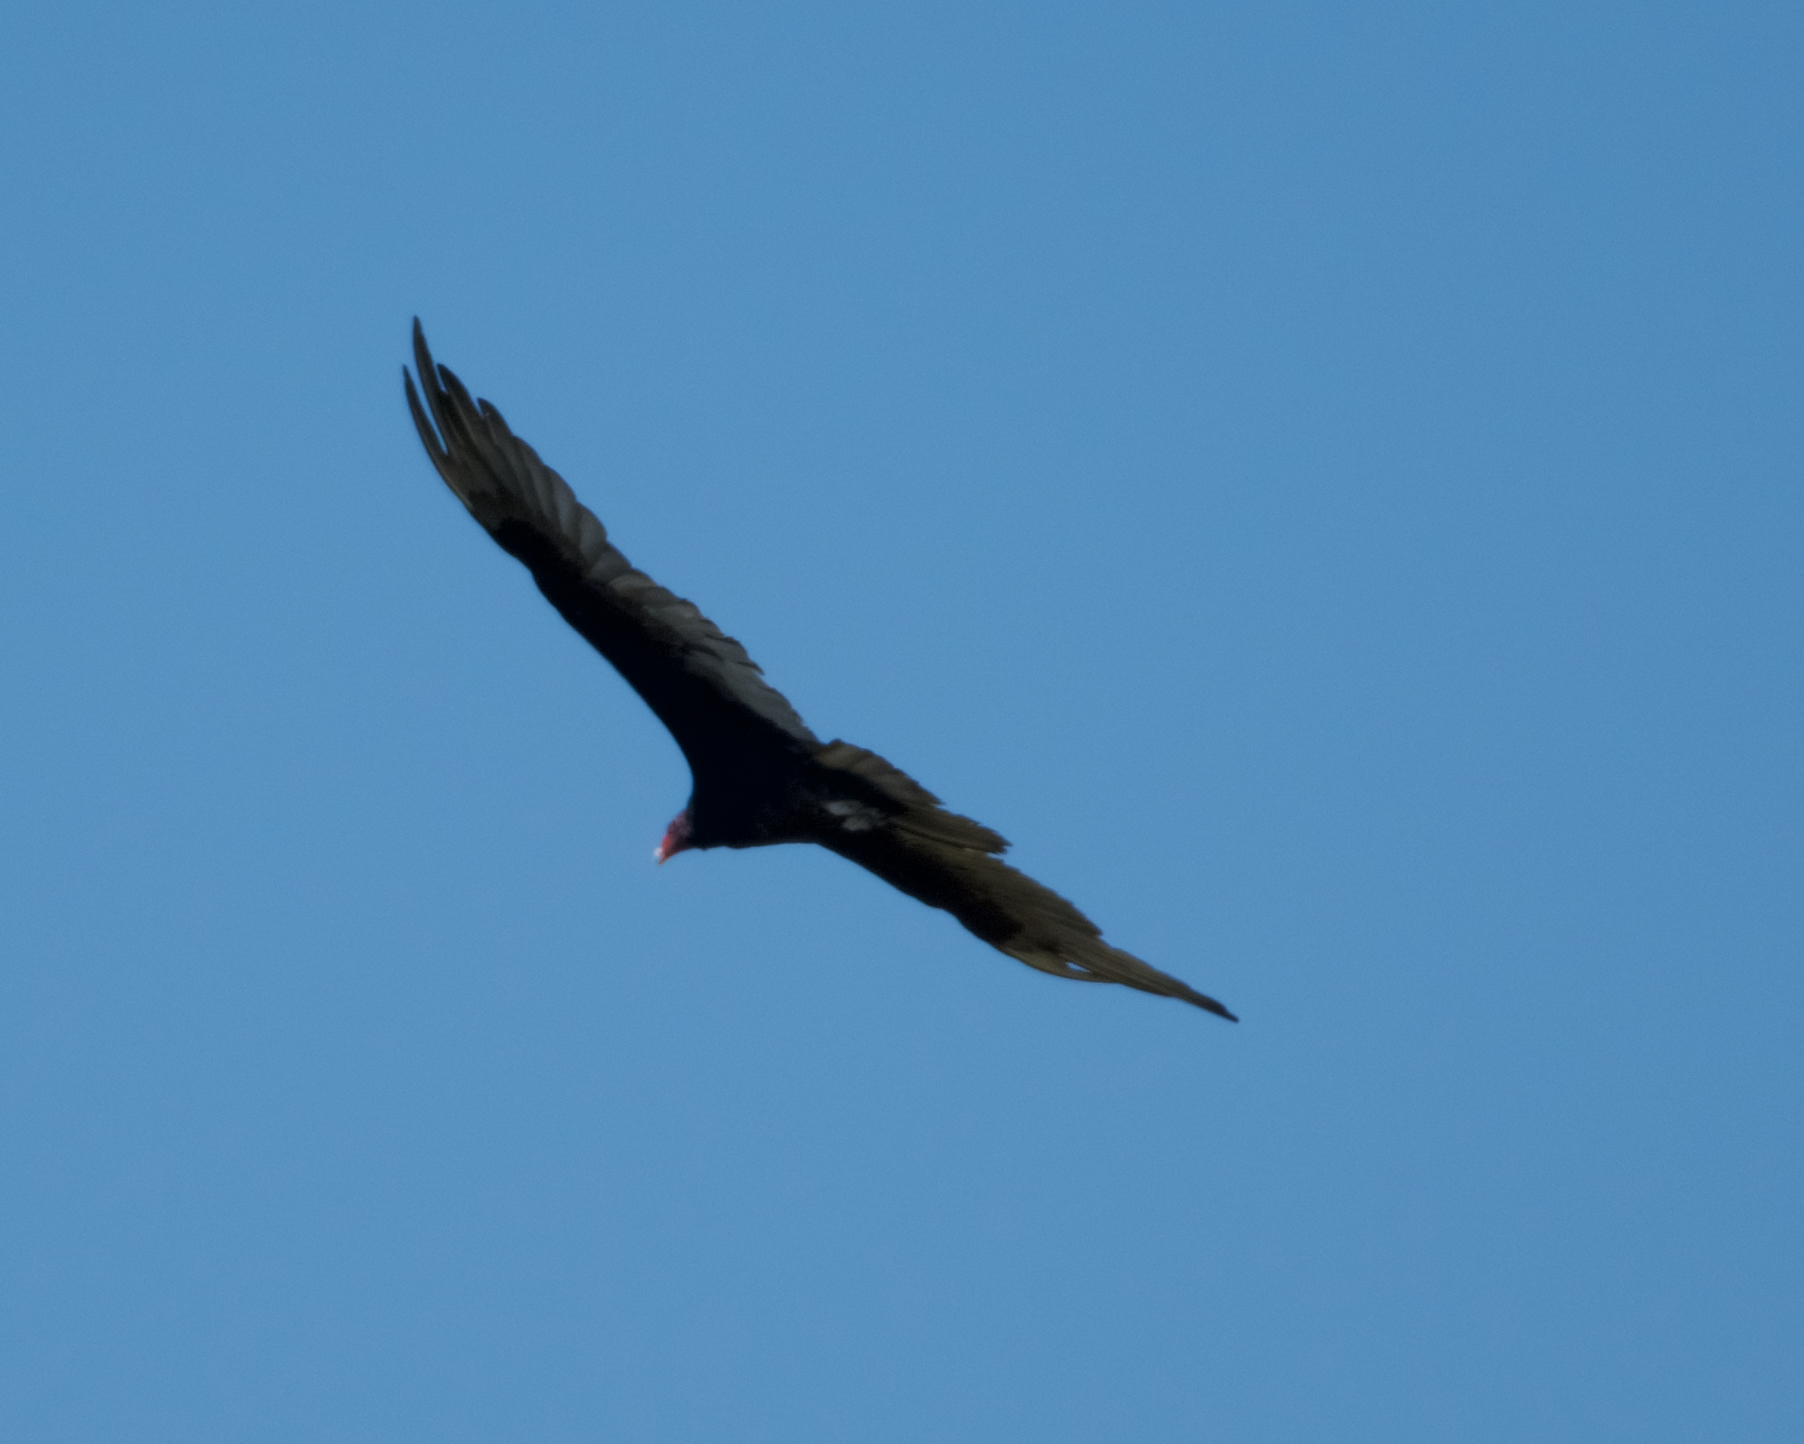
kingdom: Animalia
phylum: Chordata
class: Aves
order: Accipitriformes
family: Cathartidae
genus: Cathartes
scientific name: Cathartes aura
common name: Turkey vulture
